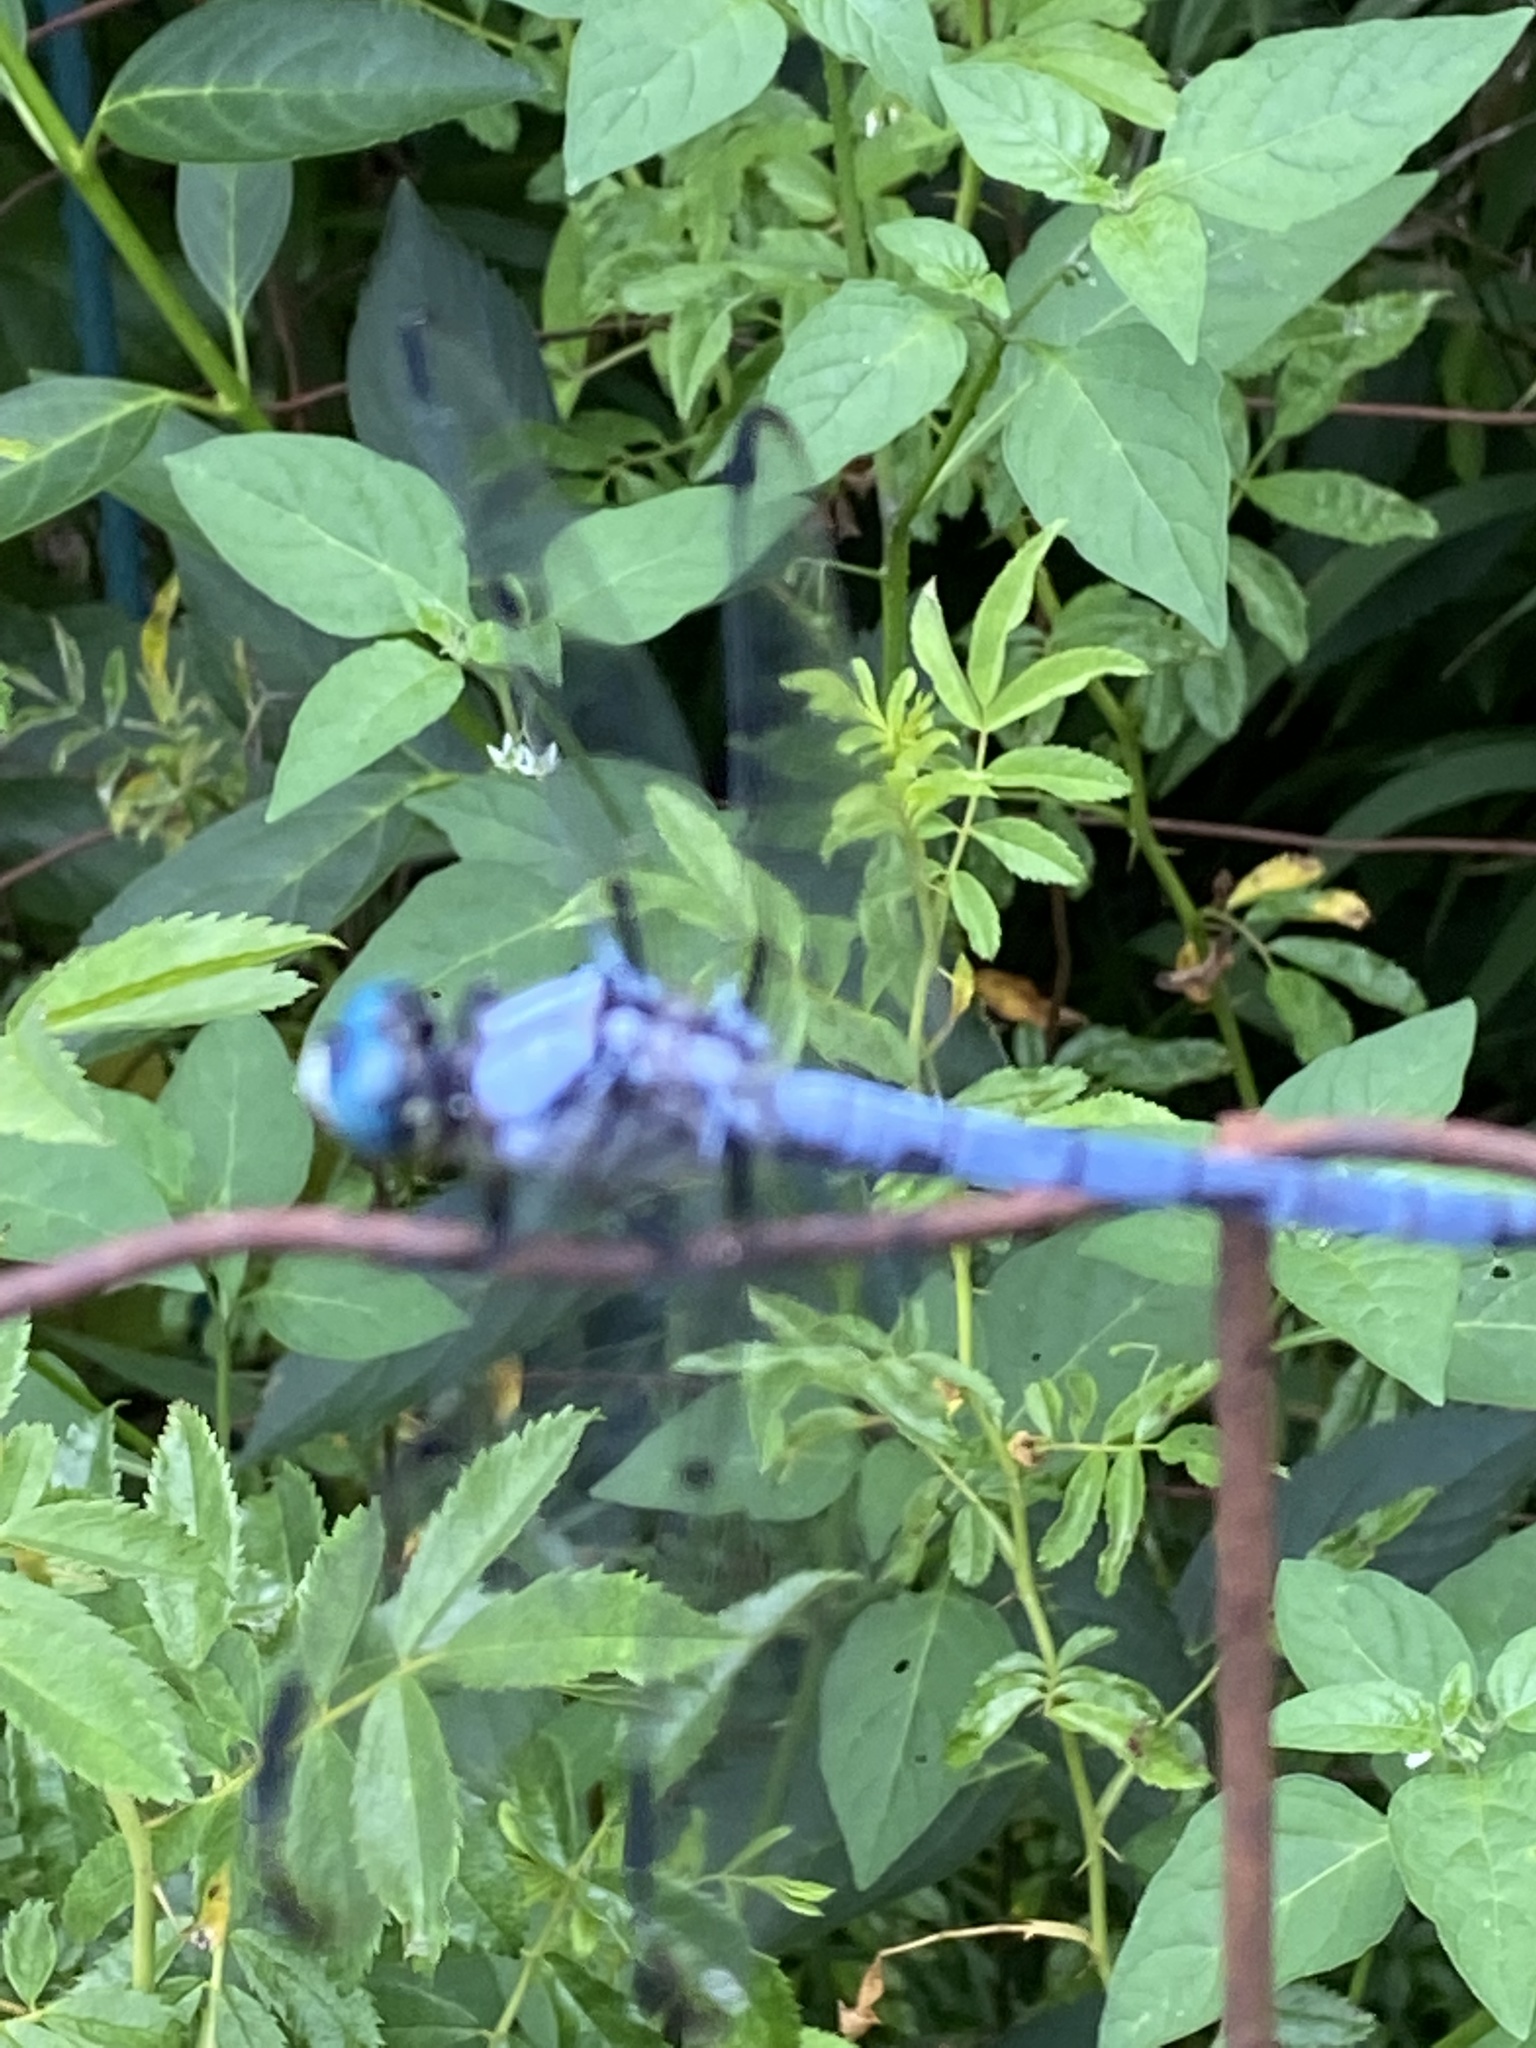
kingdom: Animalia
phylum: Arthropoda
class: Insecta
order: Odonata
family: Libellulidae
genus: Libellula
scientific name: Libellula vibrans
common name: Great blue skimmer
